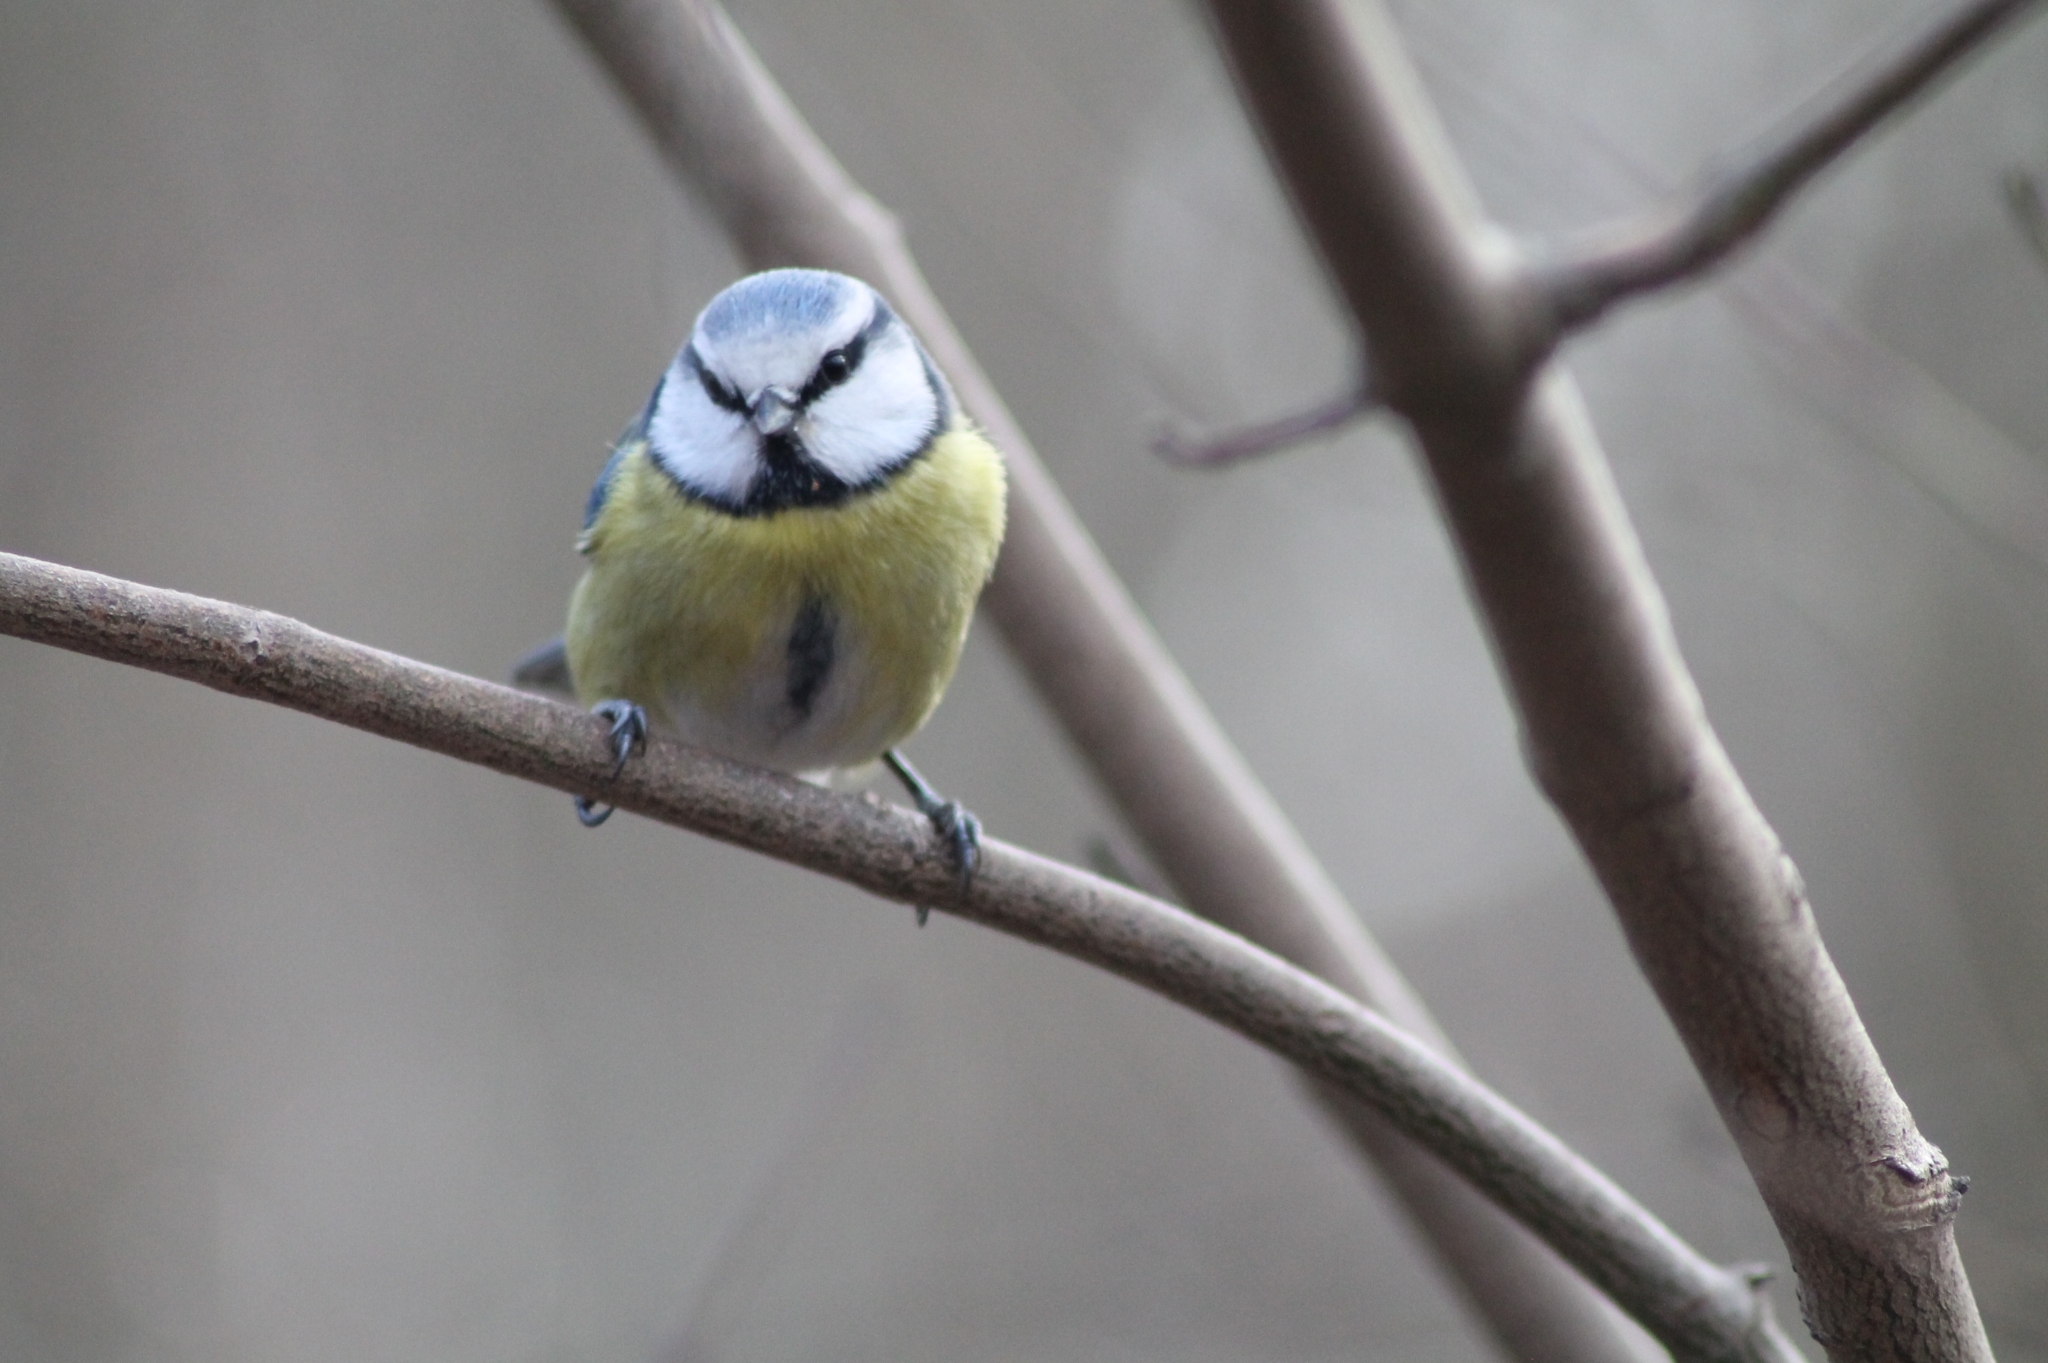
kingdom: Animalia
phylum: Chordata
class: Aves
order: Passeriformes
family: Paridae
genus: Cyanistes
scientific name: Cyanistes caeruleus
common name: Eurasian blue tit
